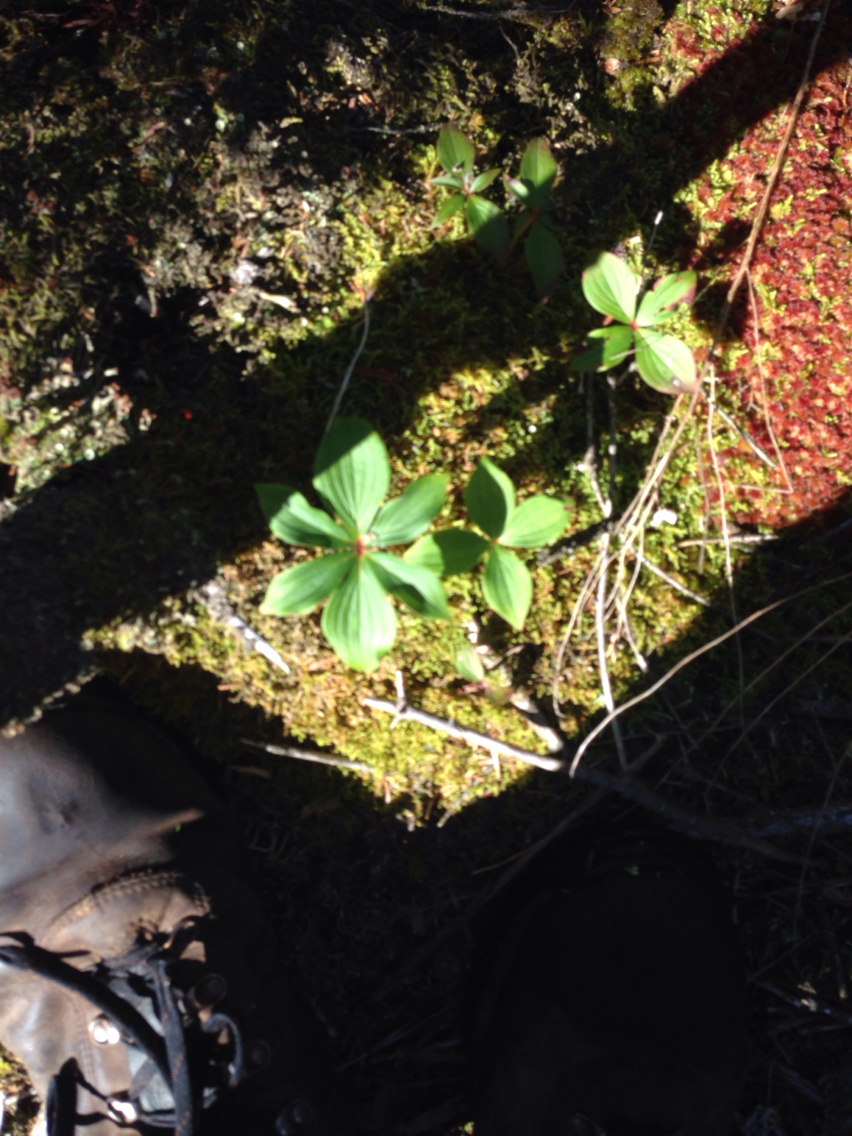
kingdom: Plantae
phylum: Tracheophyta
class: Magnoliopsida
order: Cornales
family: Cornaceae
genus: Cornus
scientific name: Cornus canadensis
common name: Creeping dogwood
